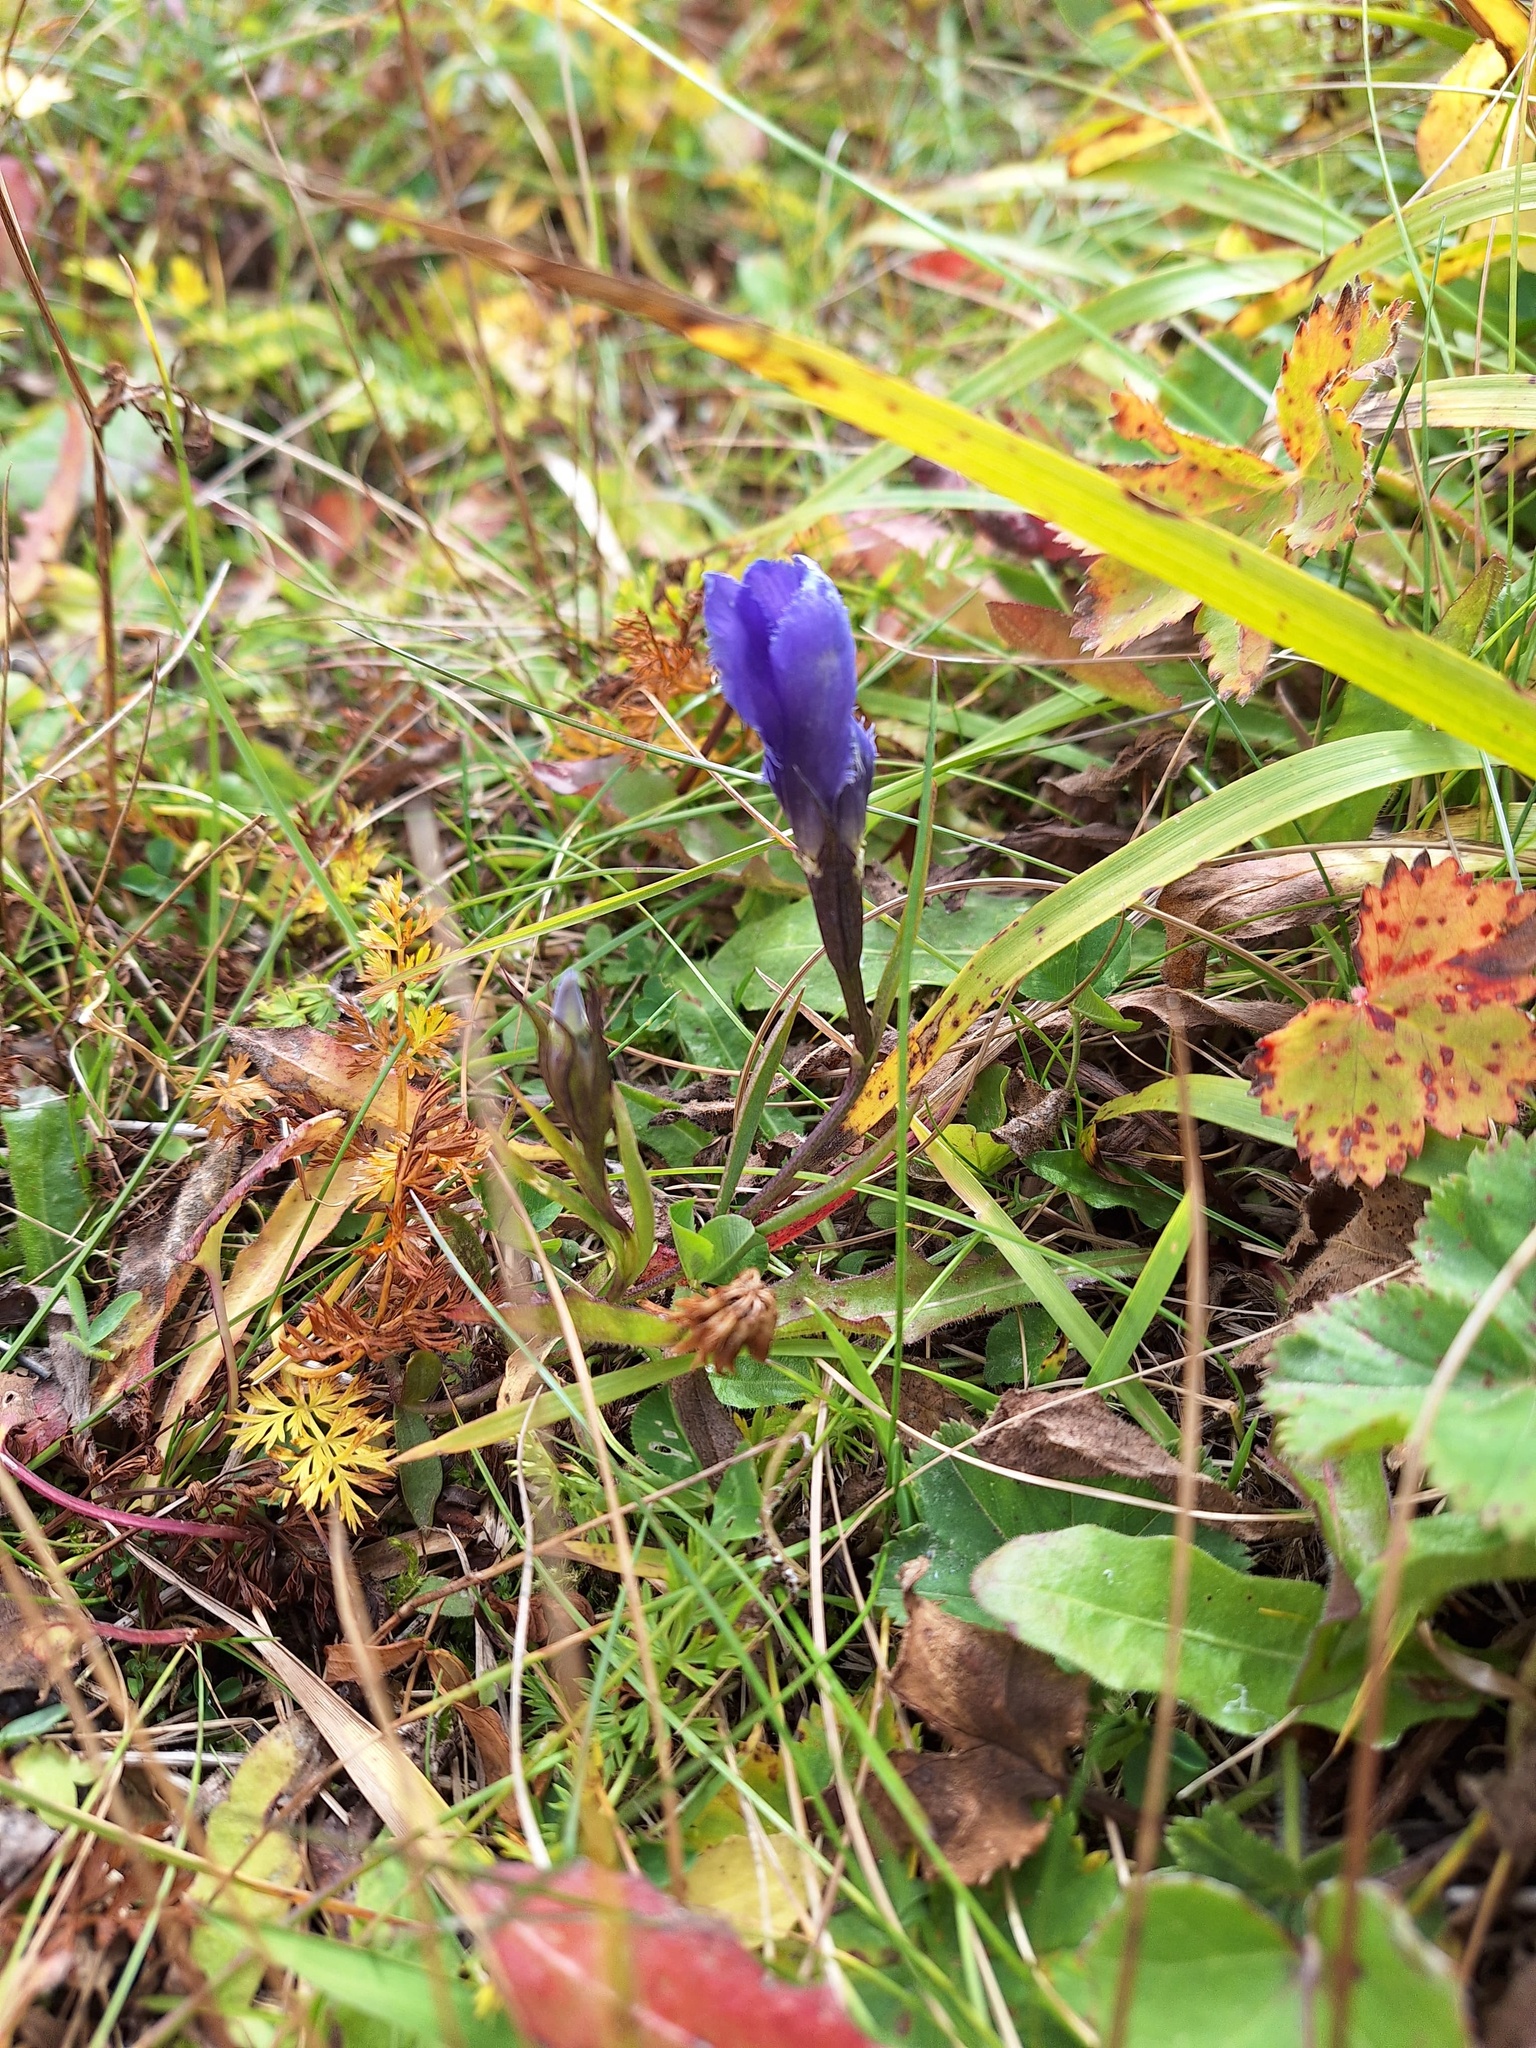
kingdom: Plantae
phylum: Tracheophyta
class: Magnoliopsida
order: Gentianales
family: Gentianaceae
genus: Gentianopsis
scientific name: Gentianopsis ciliata
